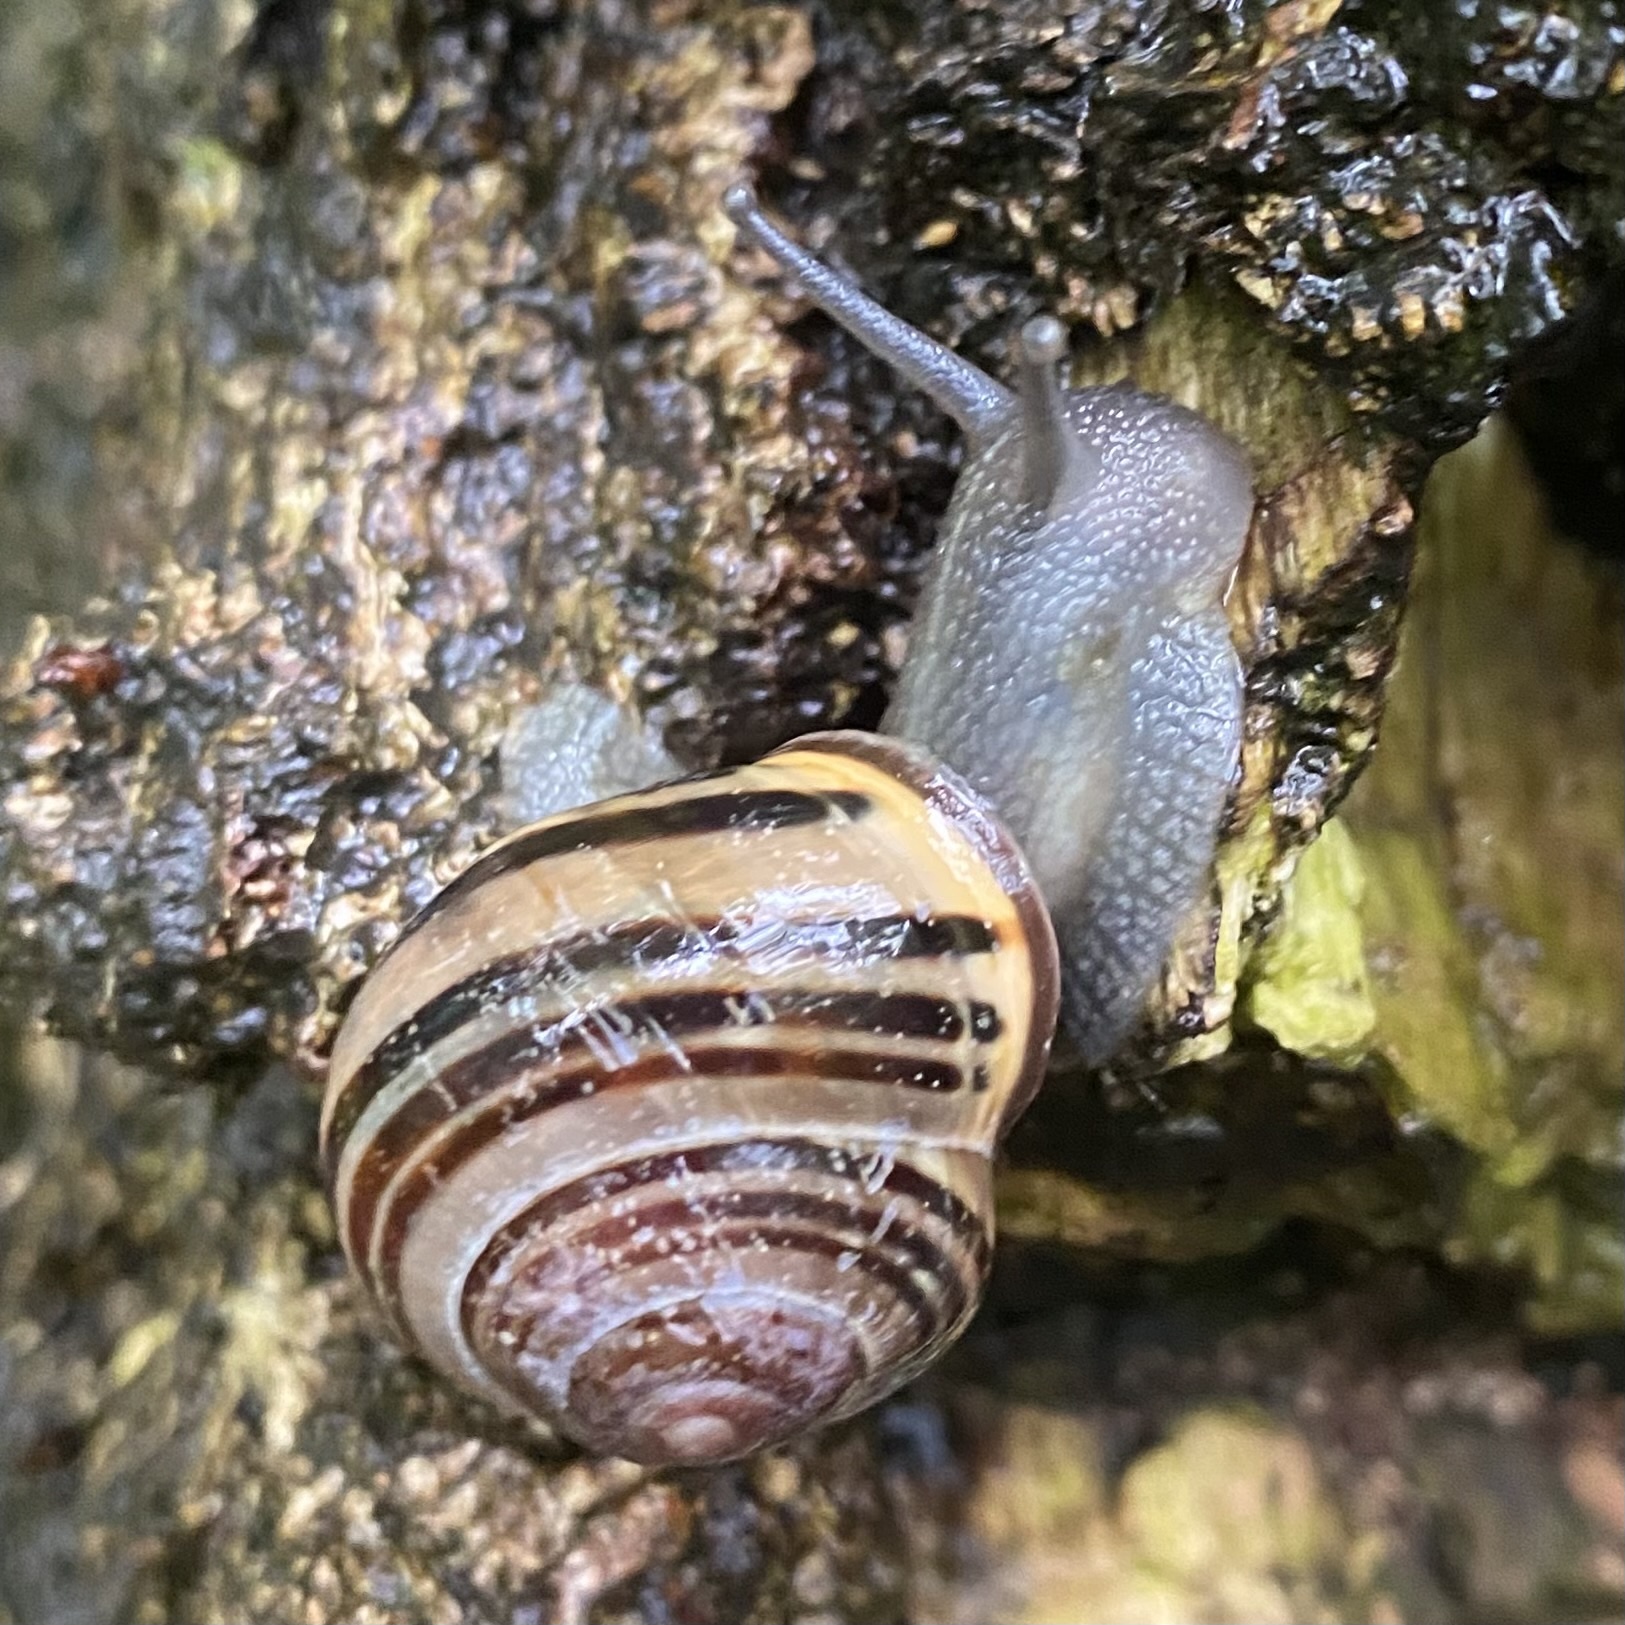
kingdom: Animalia
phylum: Mollusca
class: Gastropoda
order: Stylommatophora
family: Helicidae
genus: Cepaea
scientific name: Cepaea nemoralis
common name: Grovesnail
